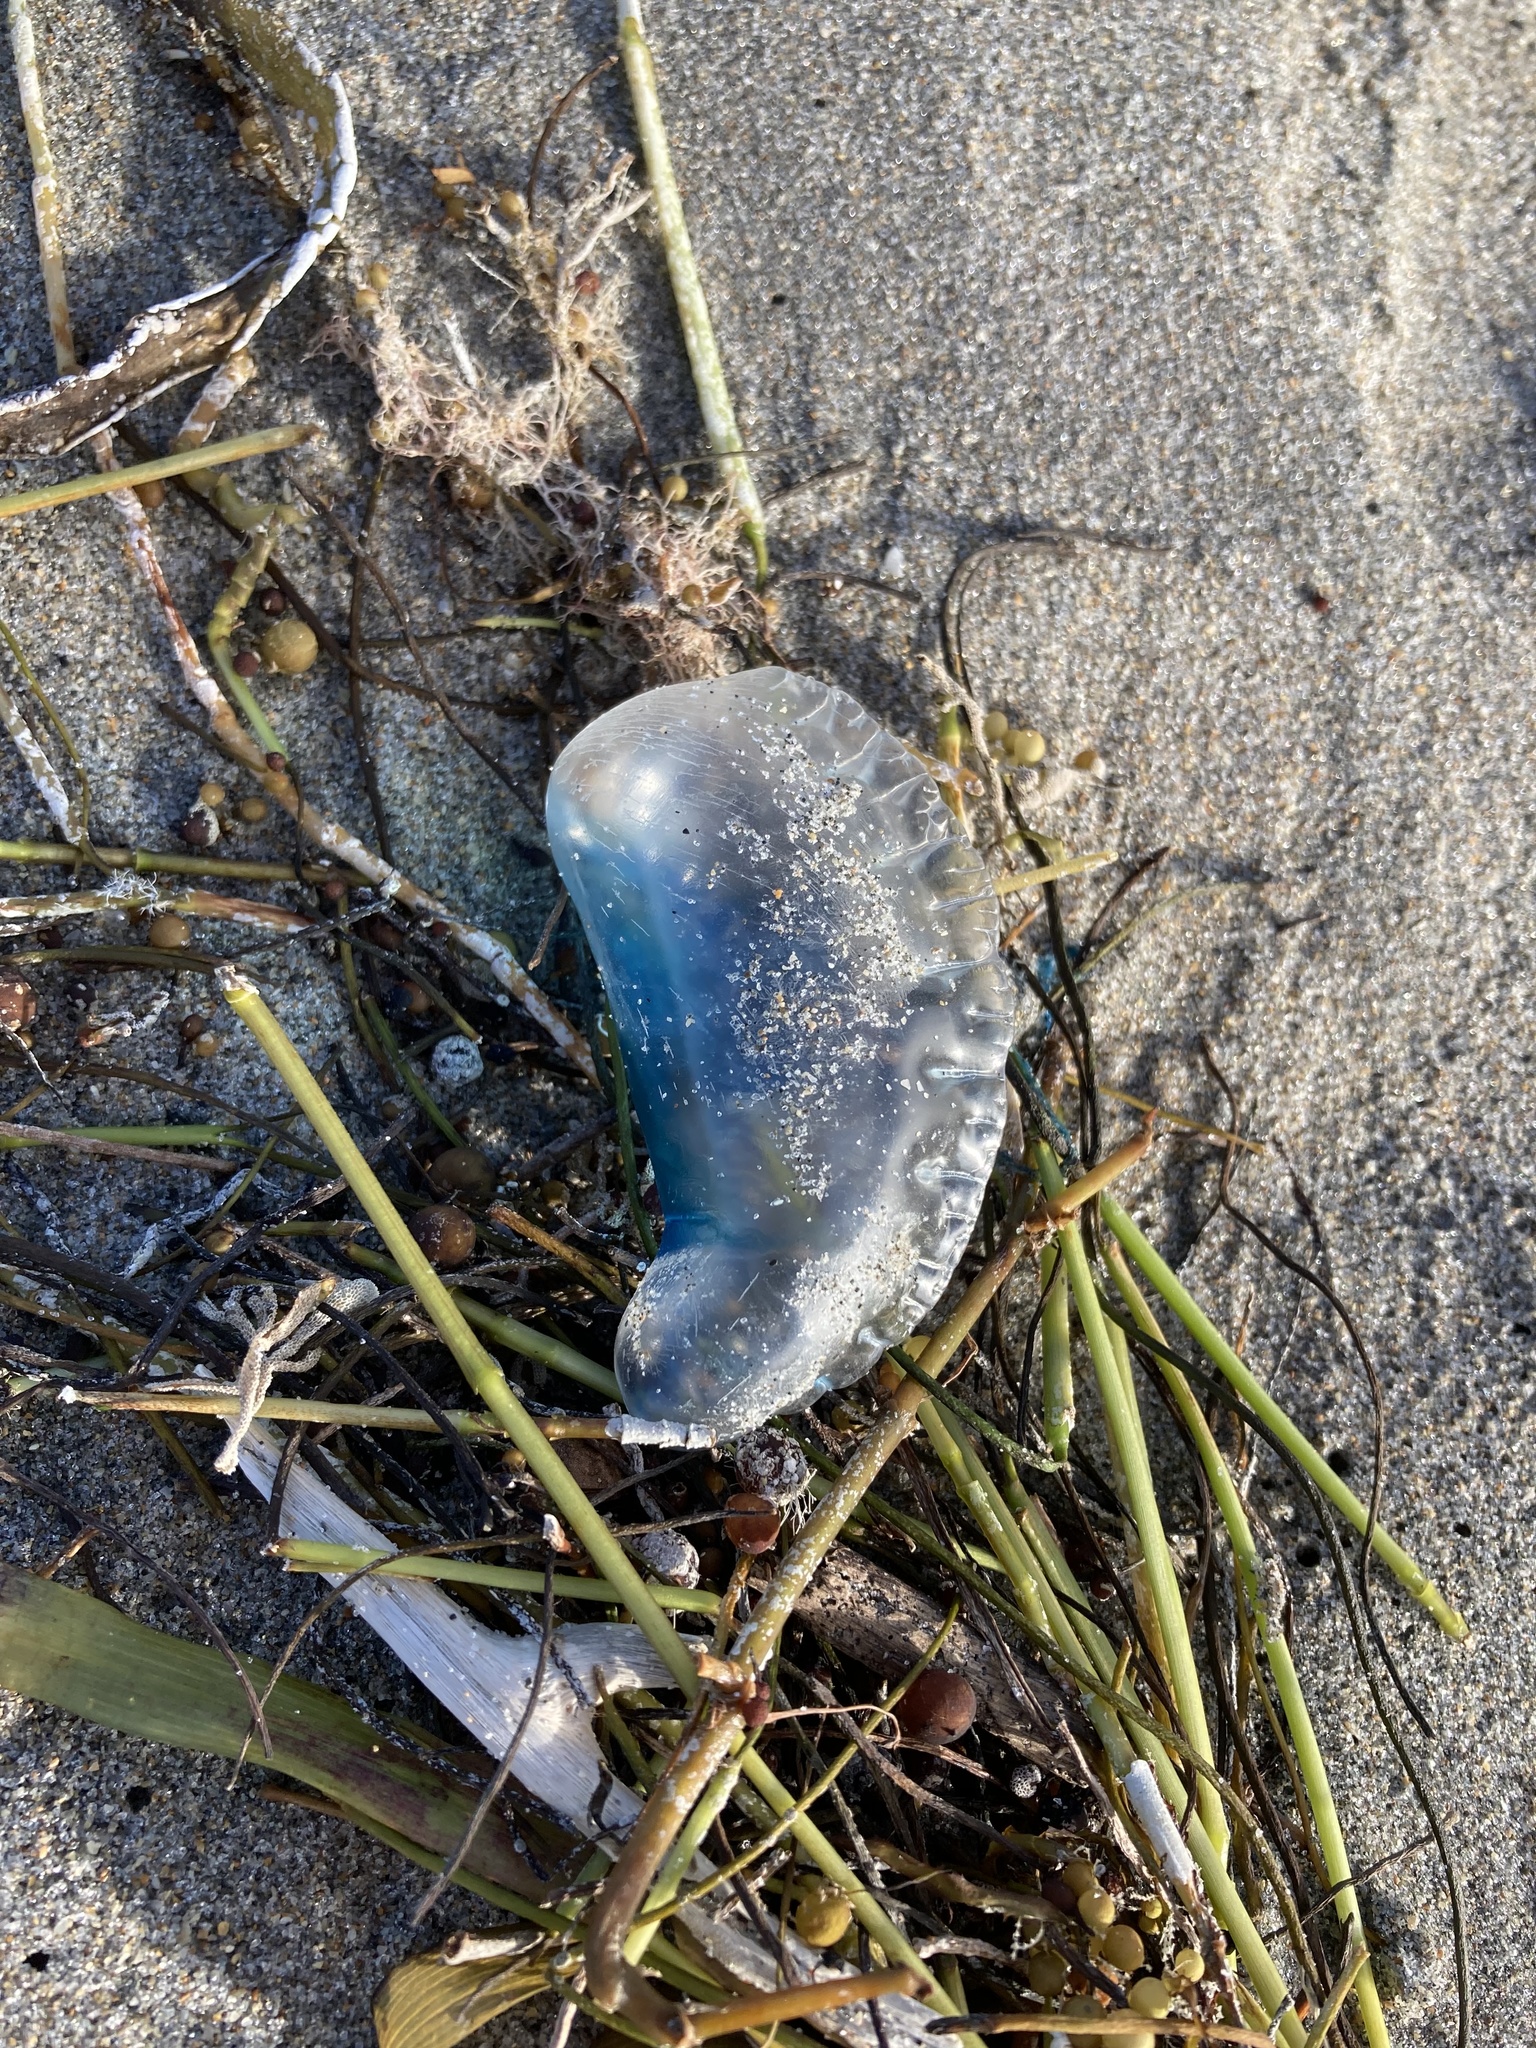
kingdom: Animalia
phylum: Cnidaria
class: Hydrozoa
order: Siphonophorae
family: Physaliidae
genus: Physalia
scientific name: Physalia physalis
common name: Portuguese man-of-war
